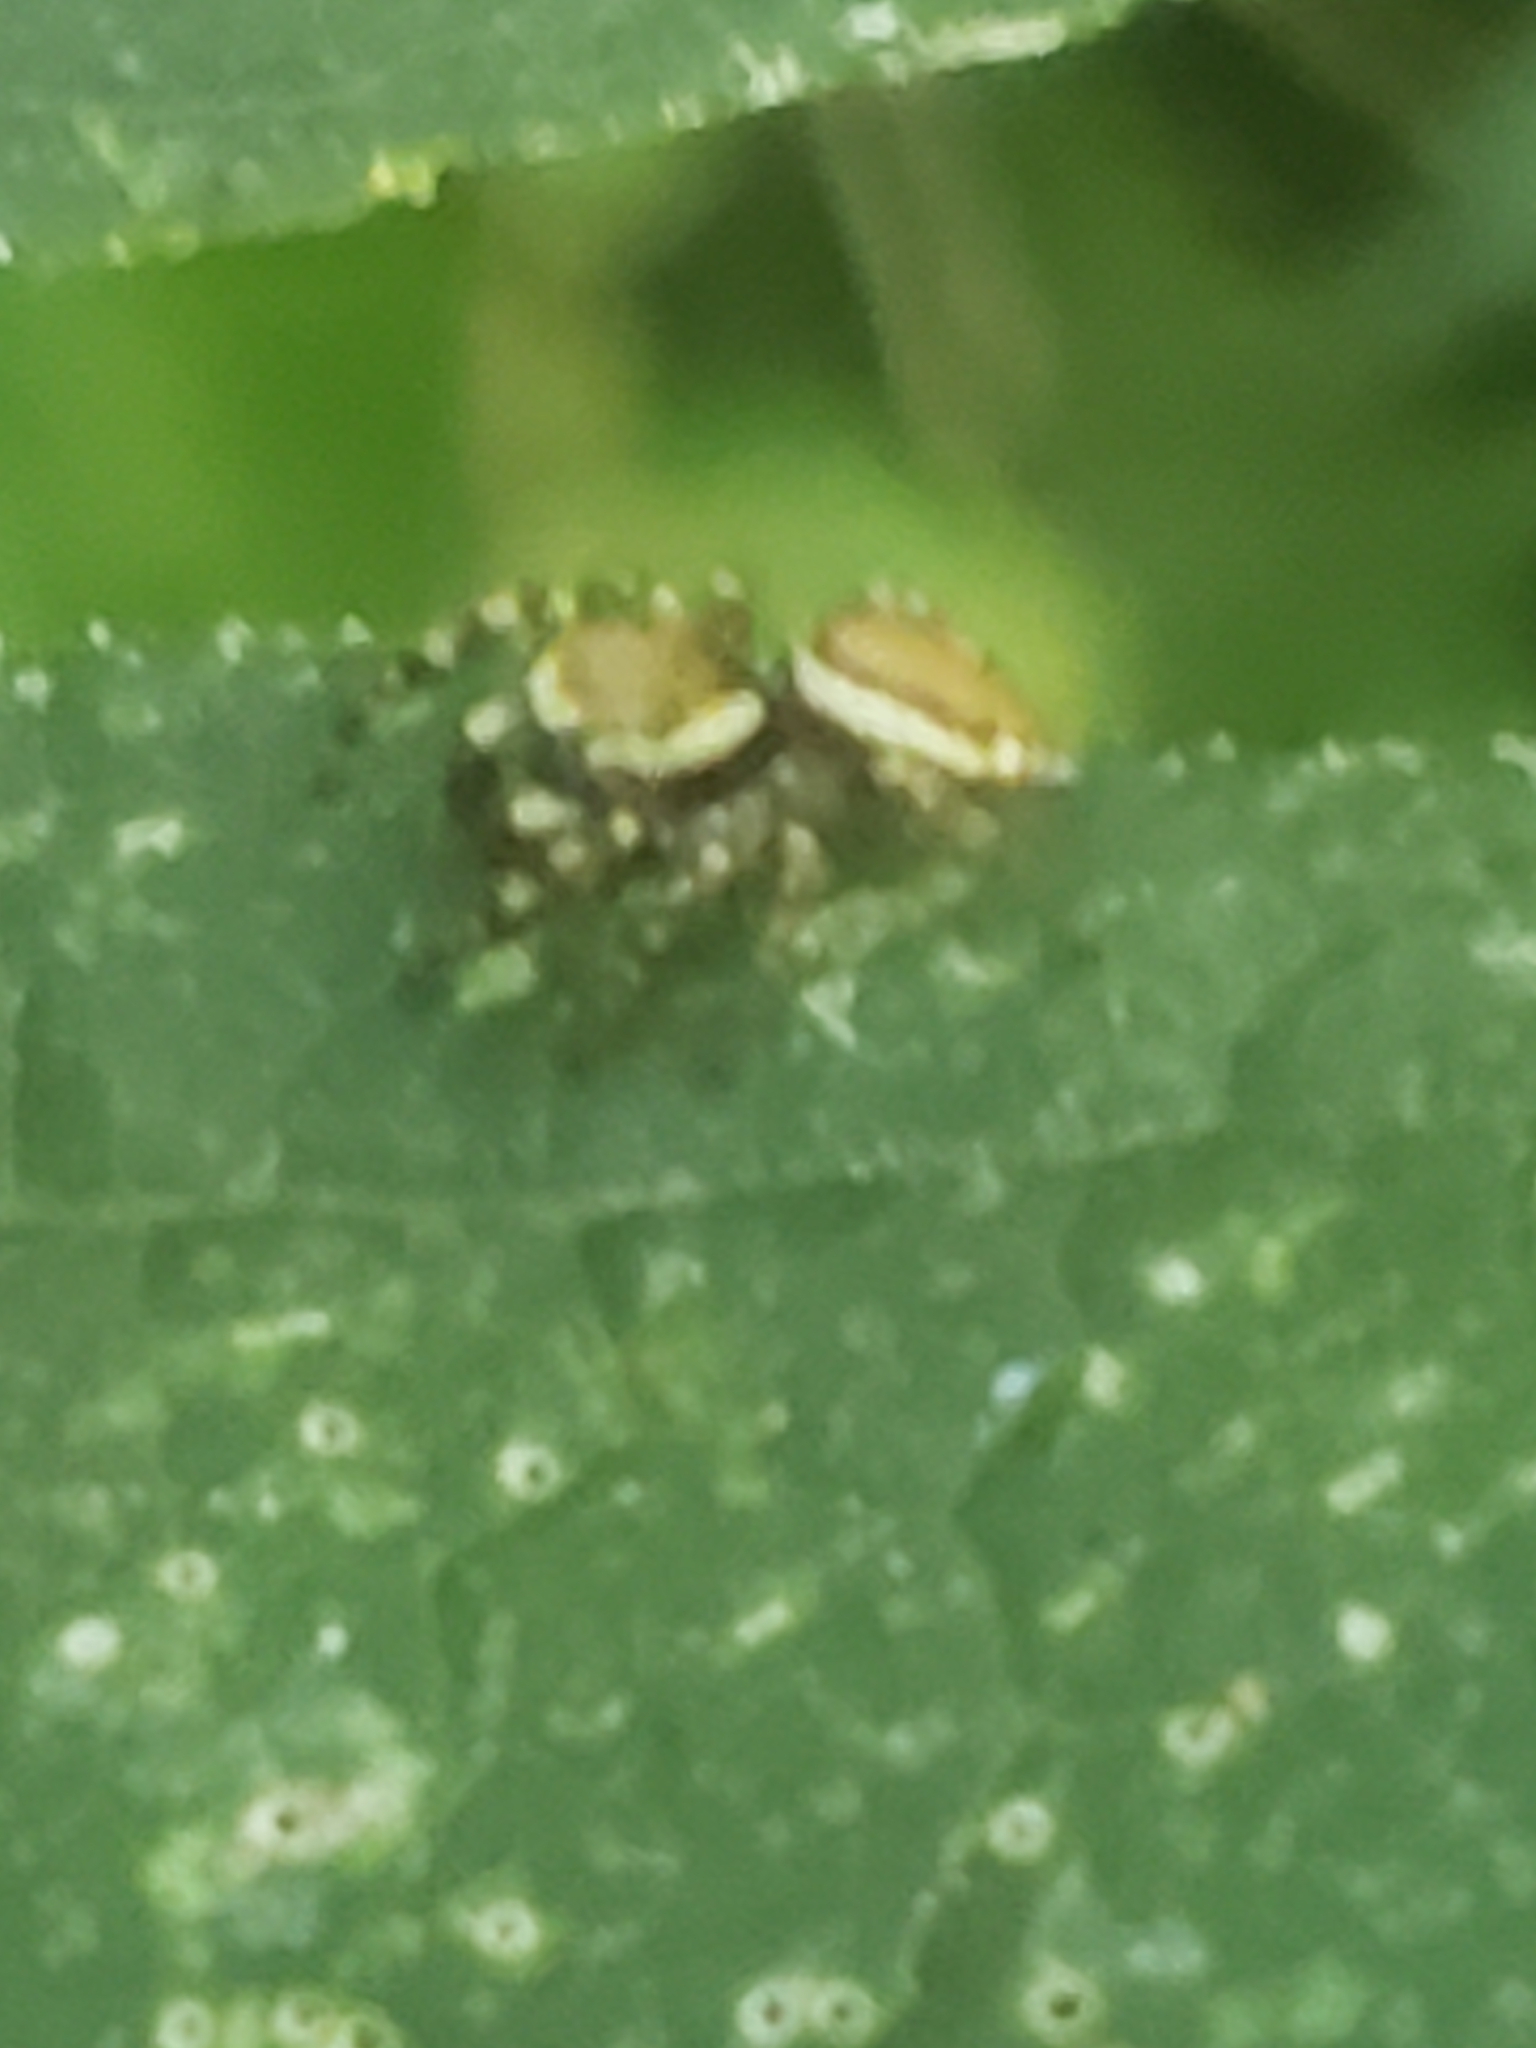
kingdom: Animalia
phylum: Arthropoda
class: Arachnida
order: Araneae
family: Salticidae
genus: Pelegrina
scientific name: Pelegrina proterva
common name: Common white-cheeked jumping spider
